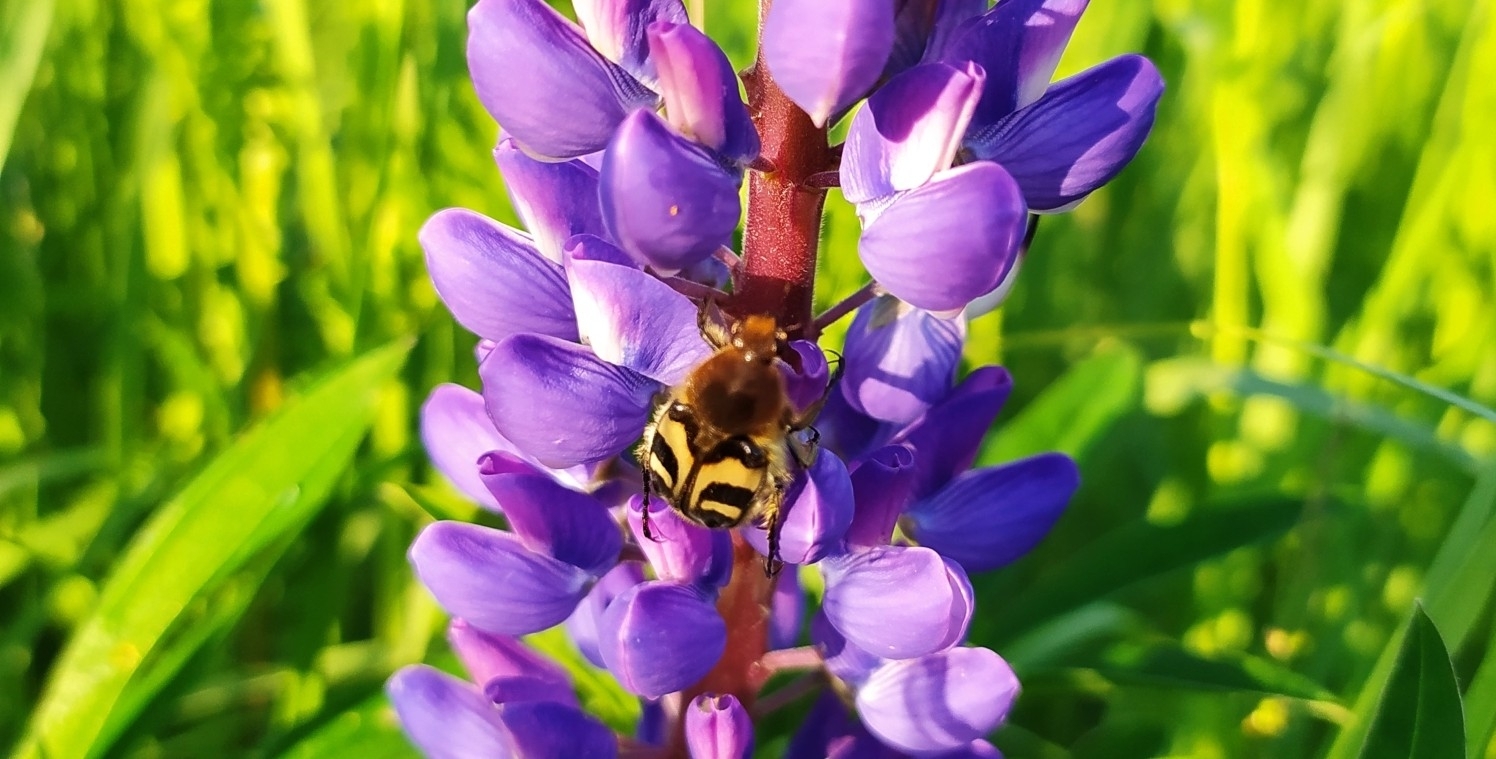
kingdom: Animalia
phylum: Arthropoda
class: Insecta
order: Coleoptera
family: Scarabaeidae
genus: Trichius
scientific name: Trichius fasciatus
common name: Bee beetle
